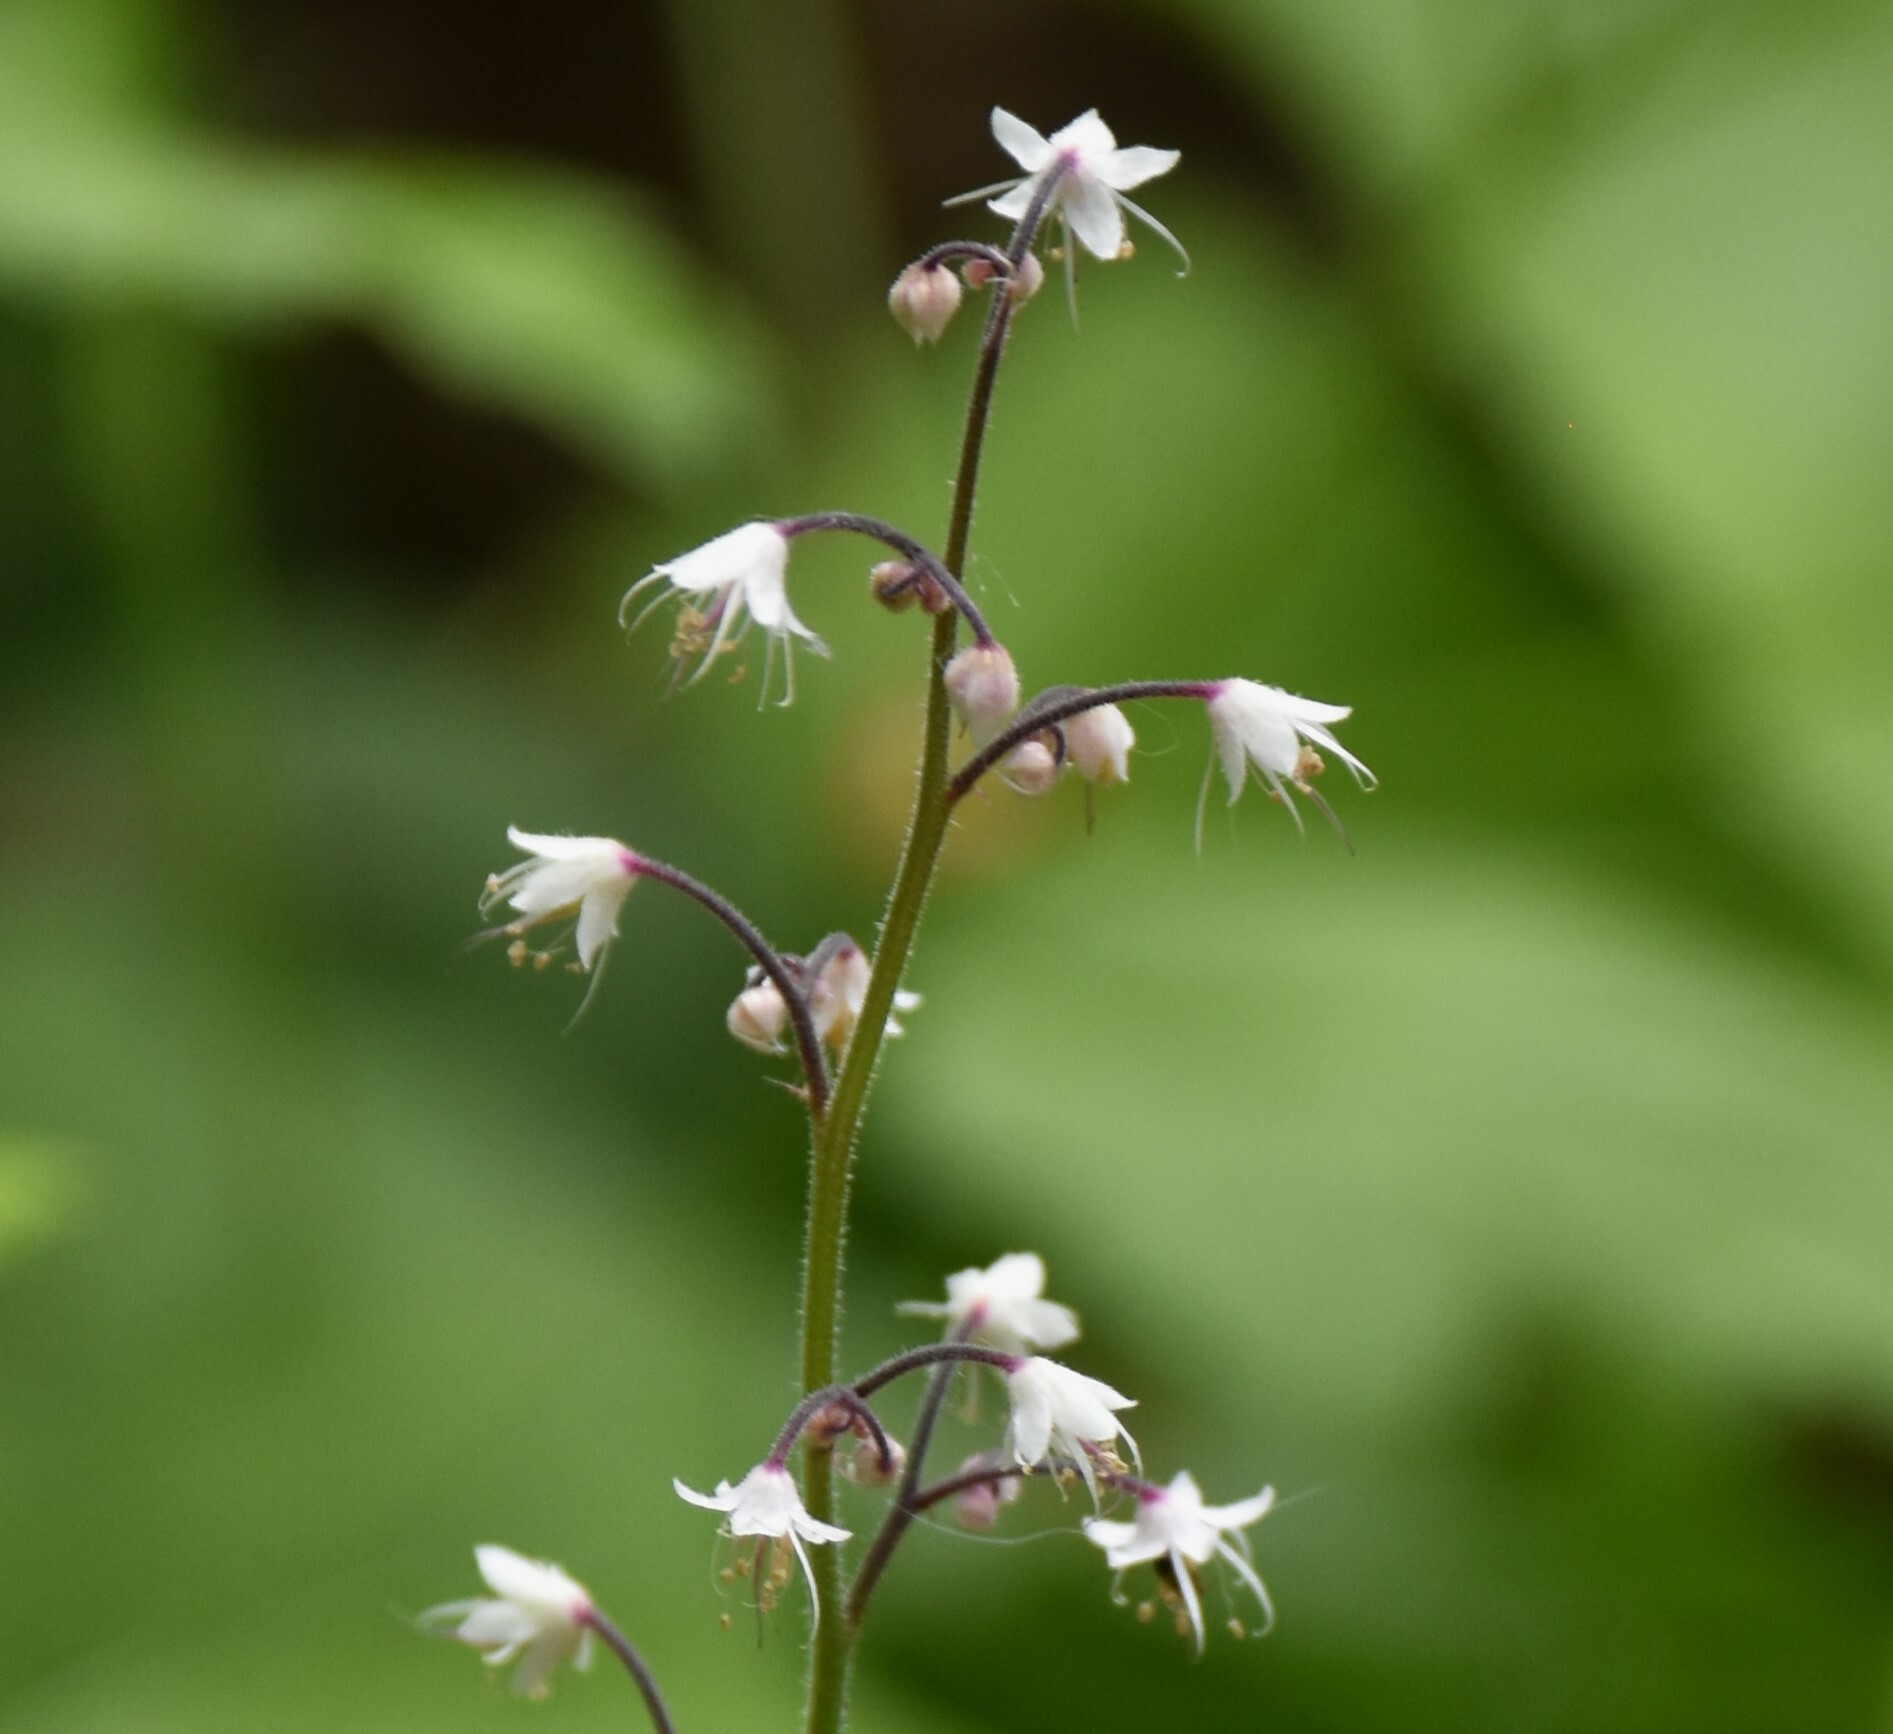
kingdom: Plantae
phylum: Tracheophyta
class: Magnoliopsida
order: Saxifragales
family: Saxifragaceae
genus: Tiarella
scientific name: Tiarella trifoliata
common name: Sugar-scoop
